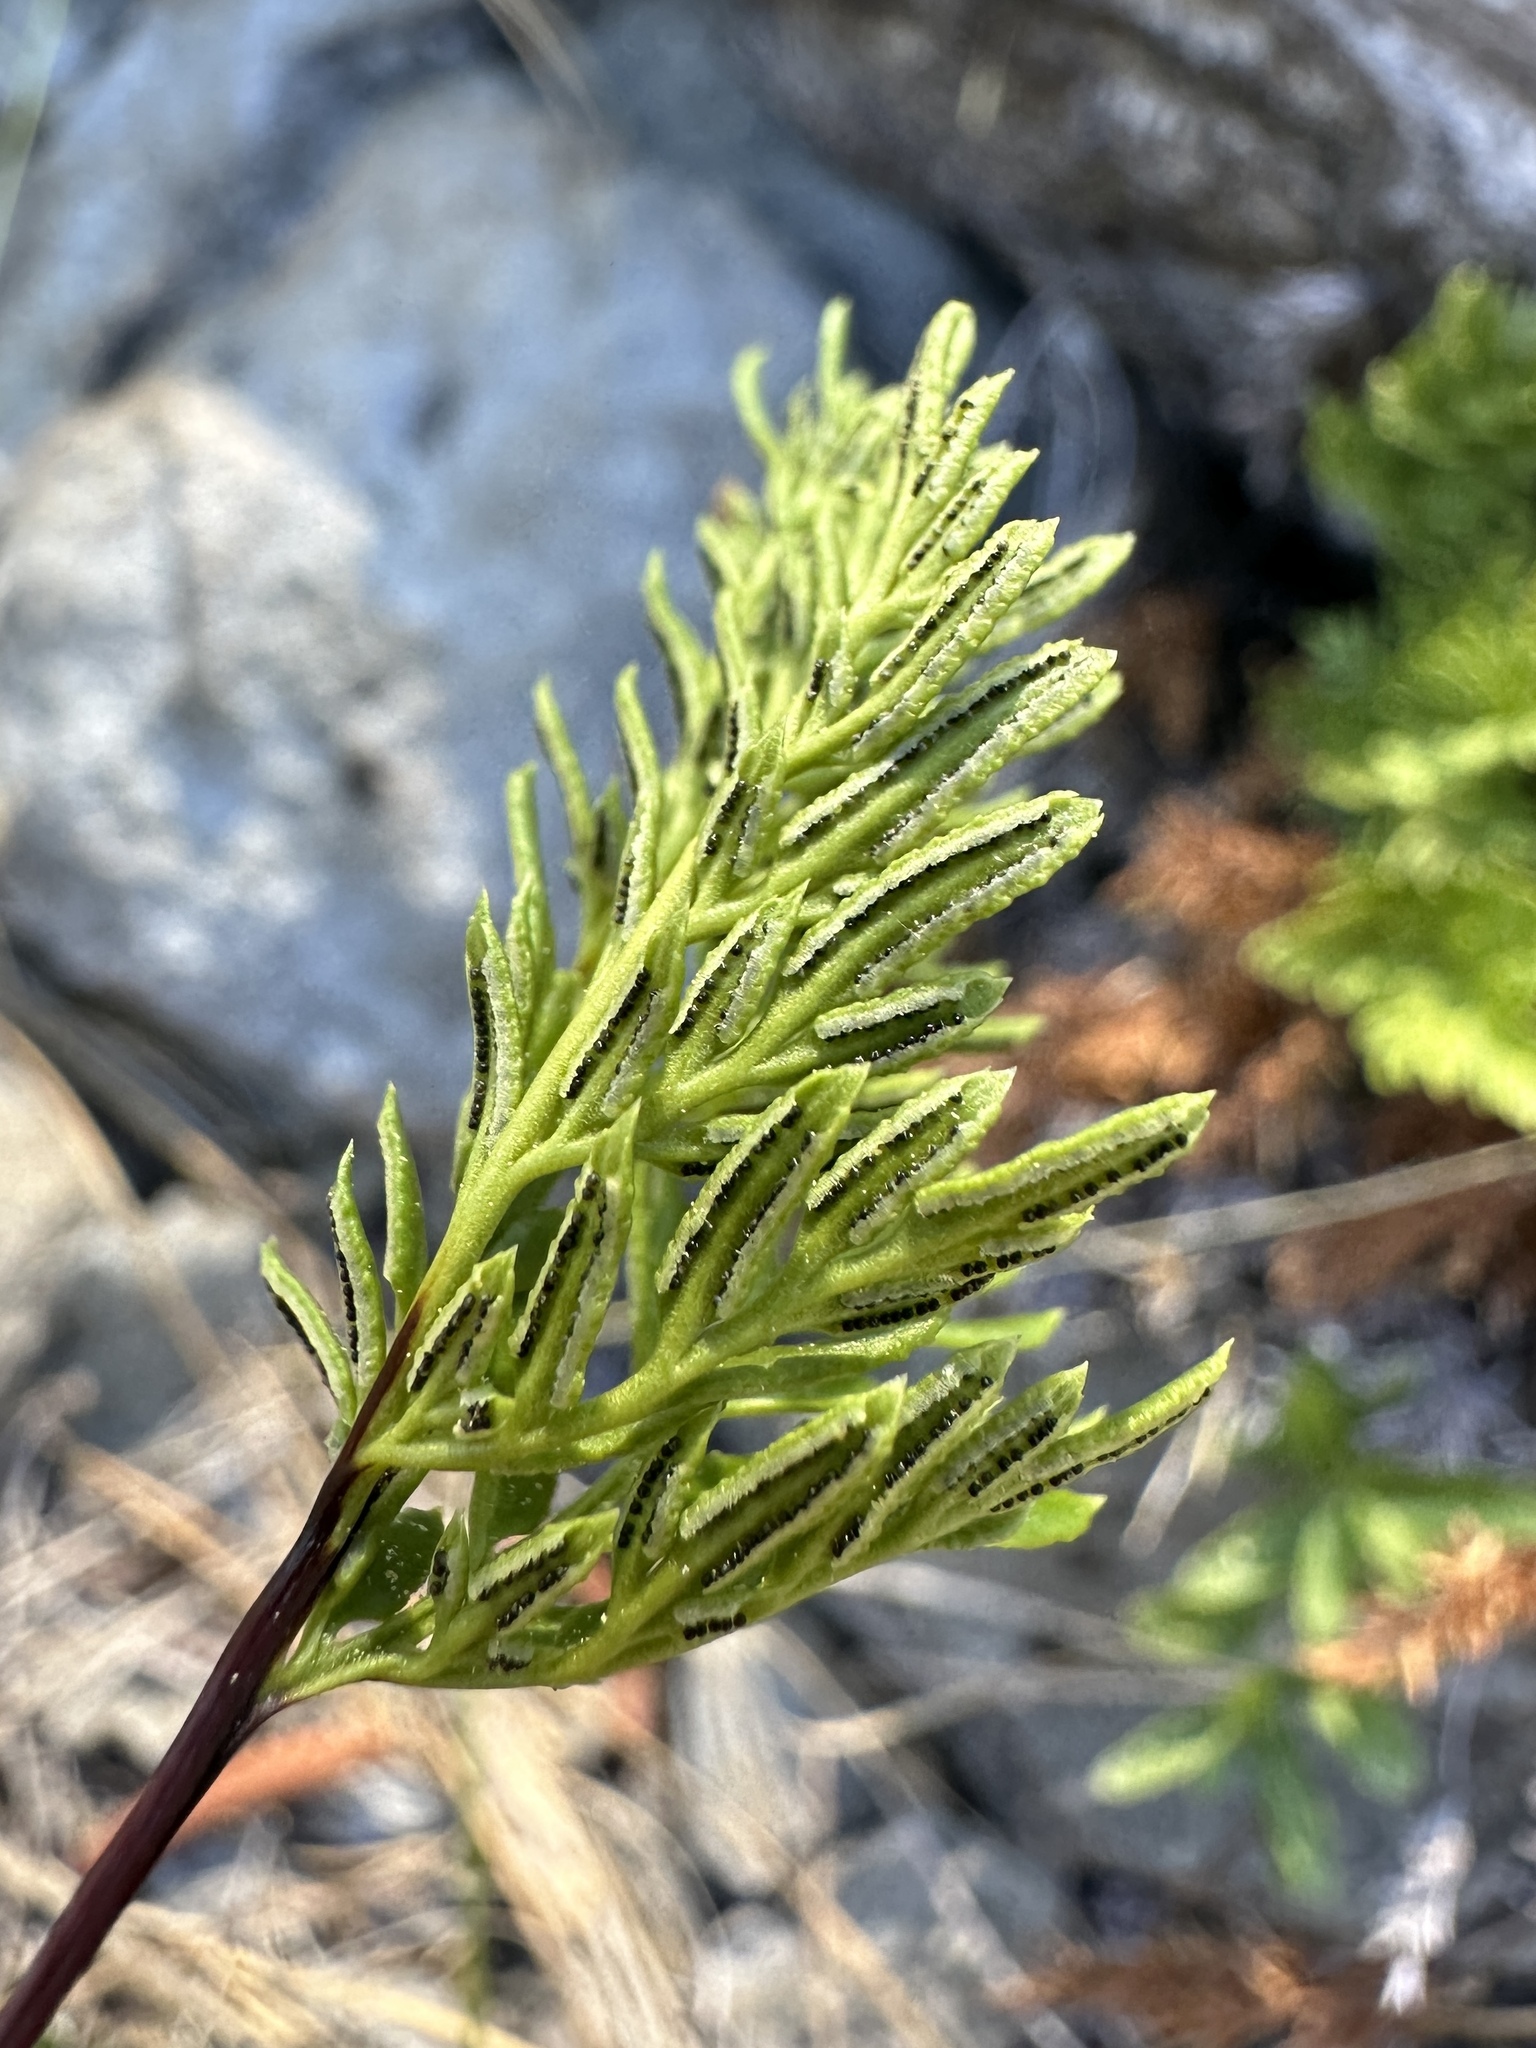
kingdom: Plantae
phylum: Tracheophyta
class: Polypodiopsida
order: Polypodiales
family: Pteridaceae
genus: Aspidotis
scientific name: Aspidotis densa
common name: Indian's dream
